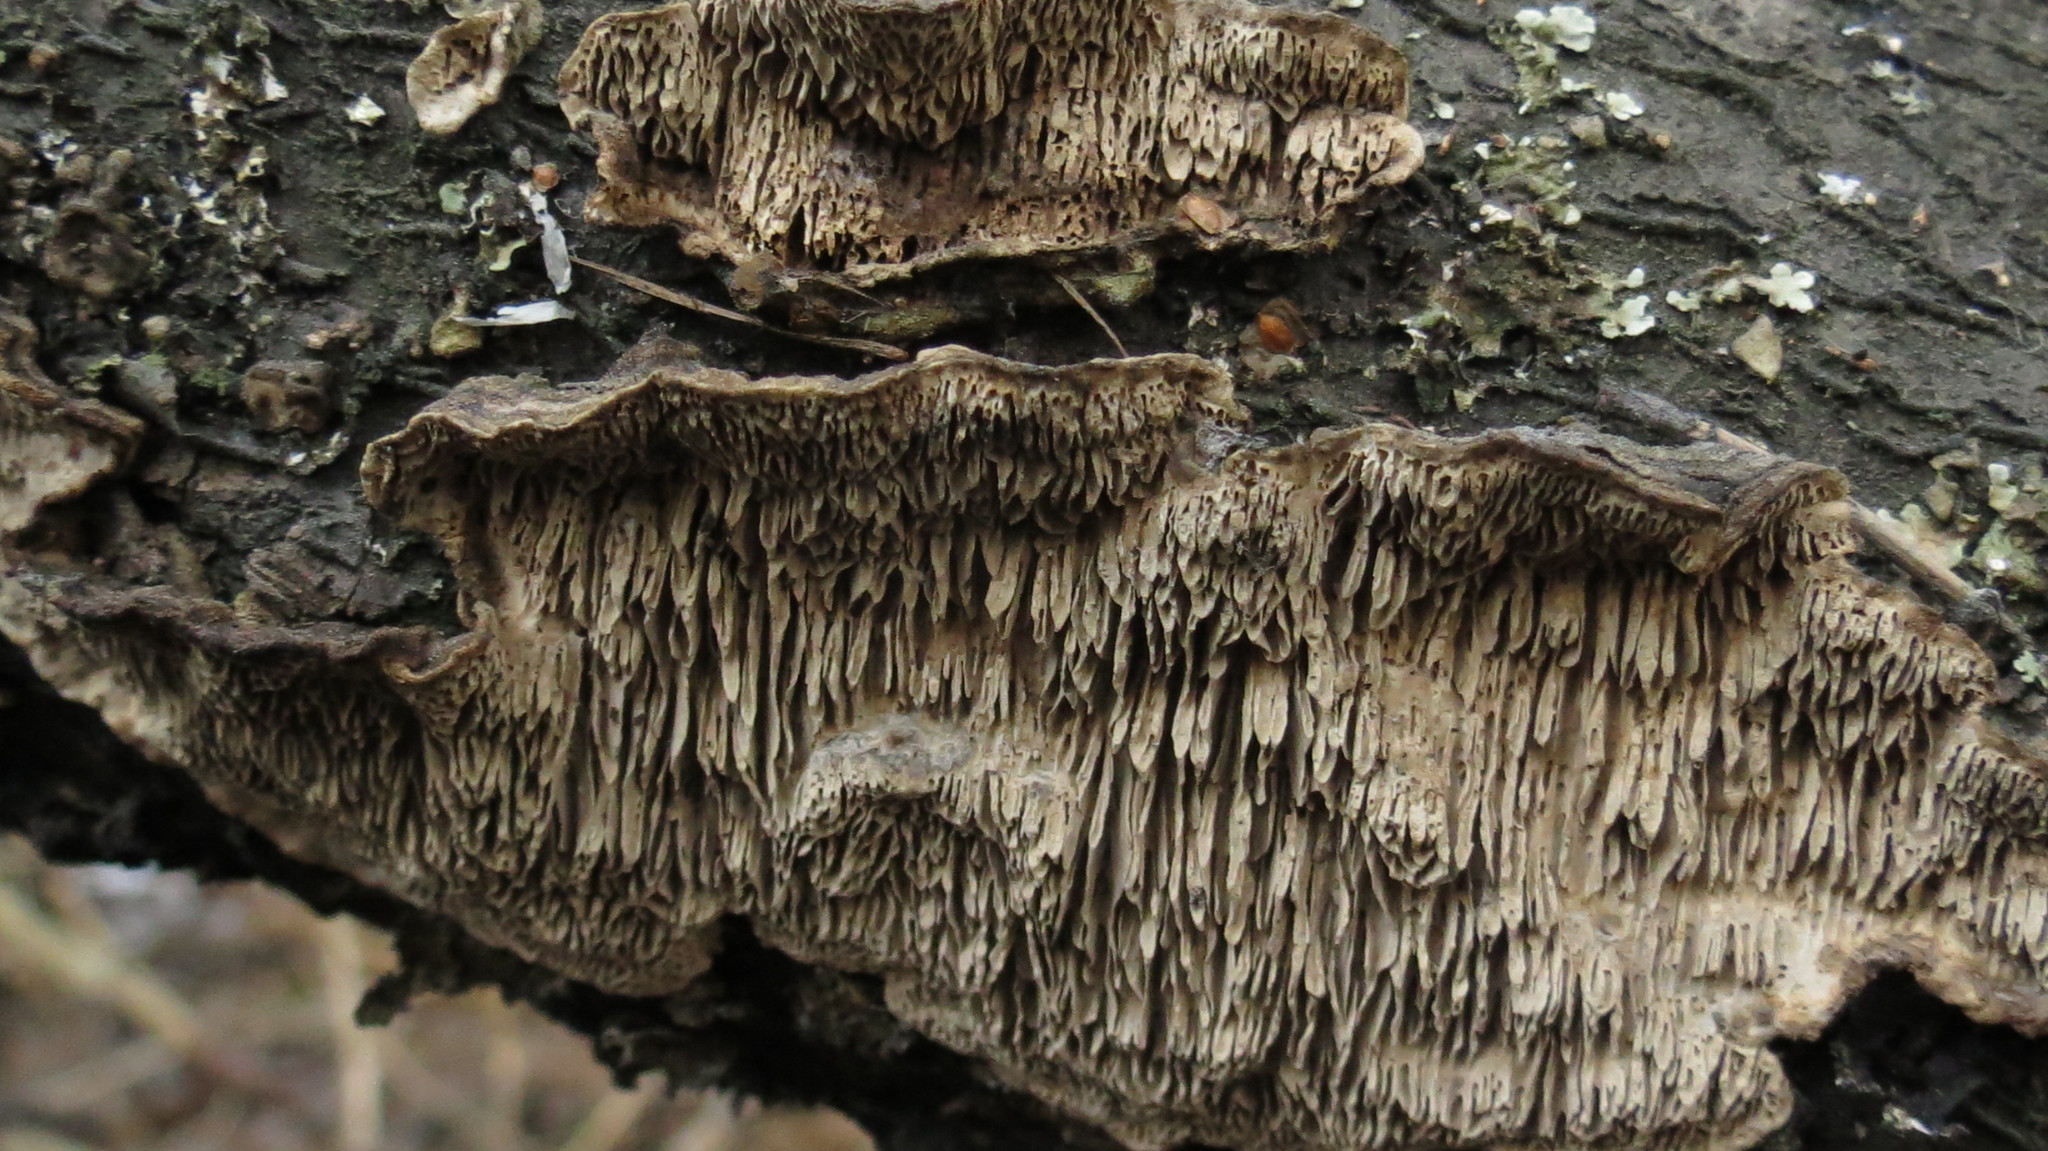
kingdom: Fungi
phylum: Basidiomycota
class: Agaricomycetes
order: Polyporales
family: Polyporaceae
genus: Podofomes
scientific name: Podofomes mollis
